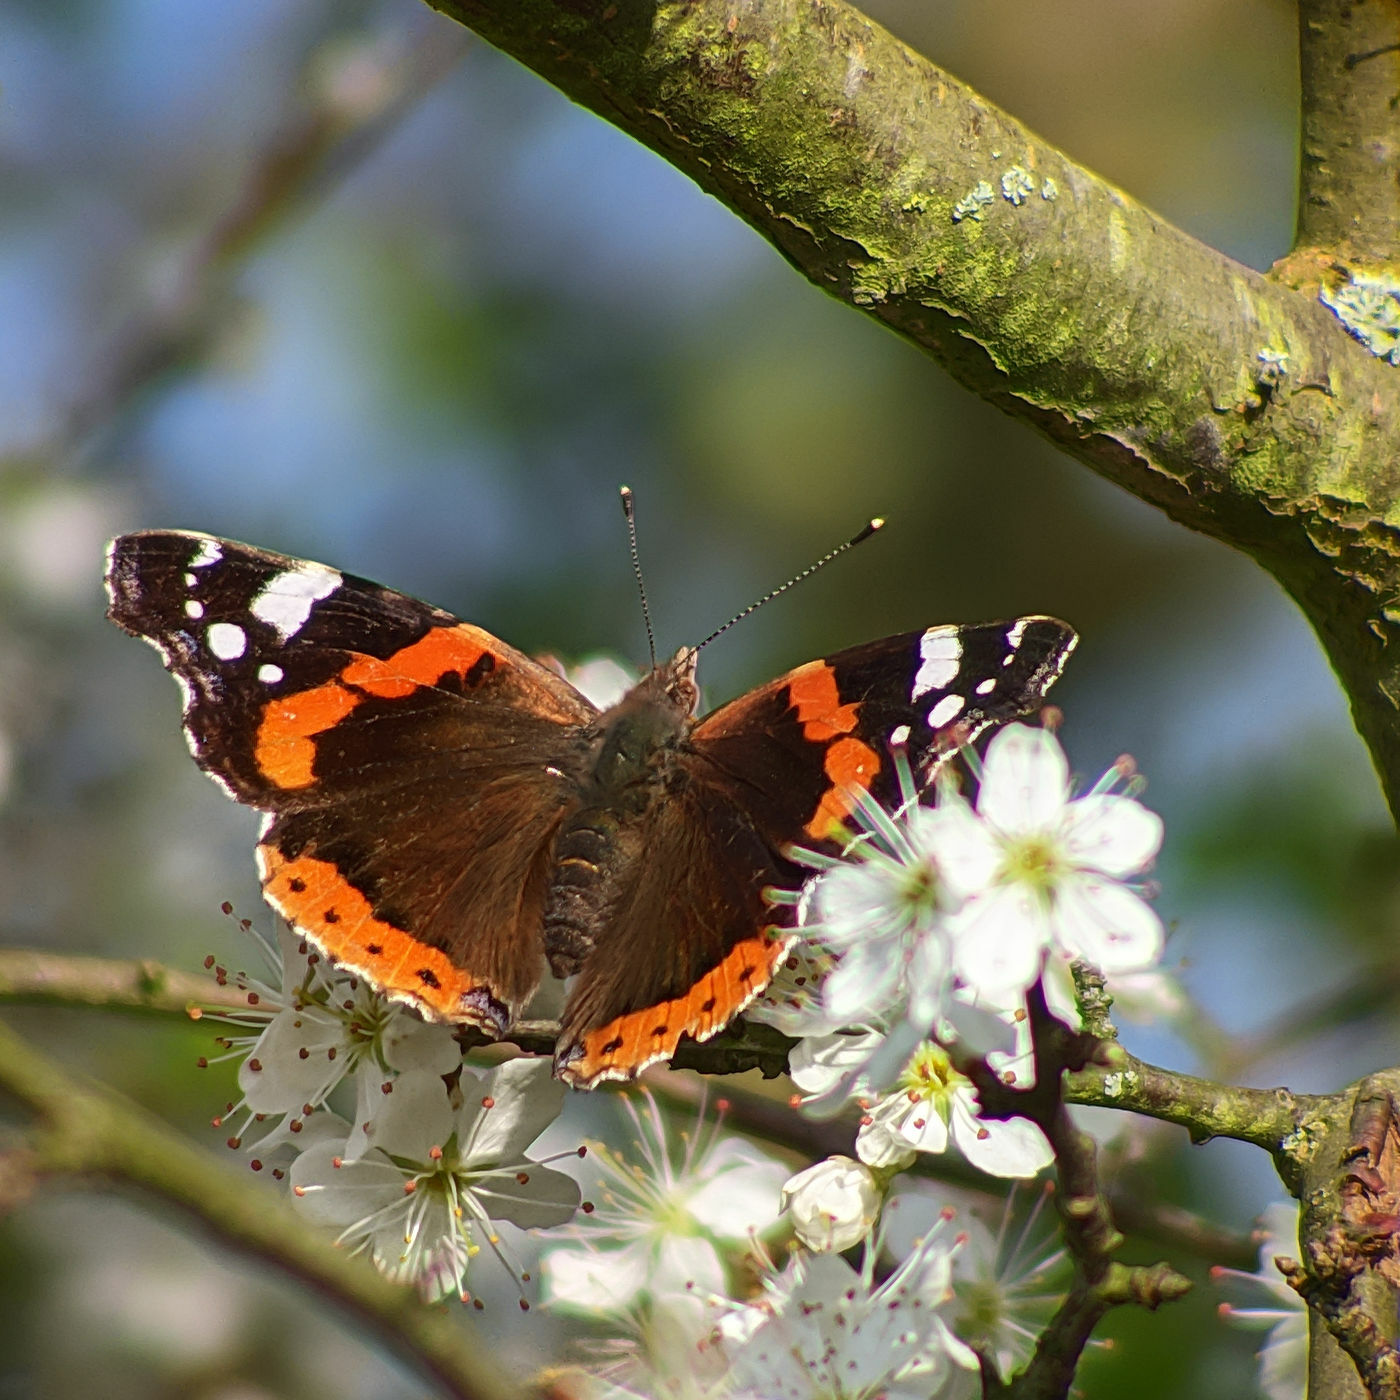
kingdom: Animalia
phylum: Arthropoda
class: Insecta
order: Lepidoptera
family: Nymphalidae
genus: Vanessa
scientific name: Vanessa atalanta
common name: Red admiral
